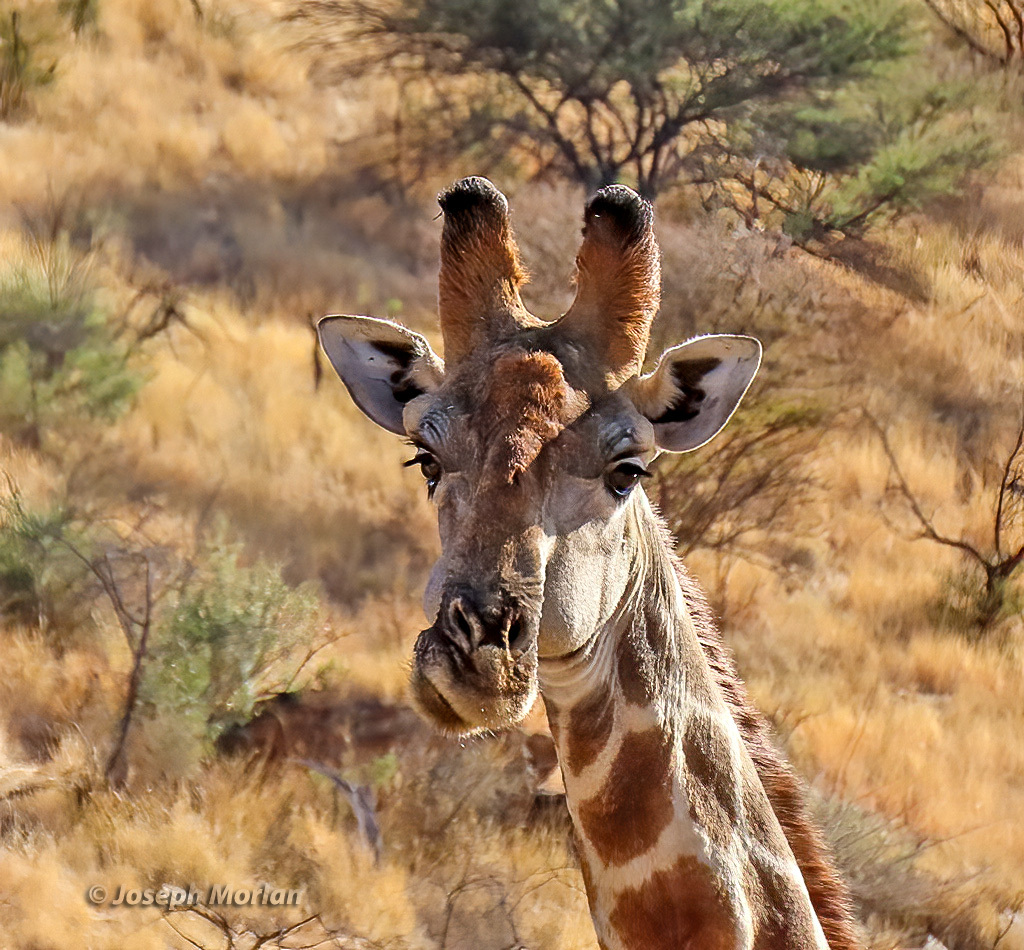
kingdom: Animalia
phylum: Chordata
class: Mammalia
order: Artiodactyla
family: Giraffidae
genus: Giraffa
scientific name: Giraffa giraffa
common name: Southern giraffe
